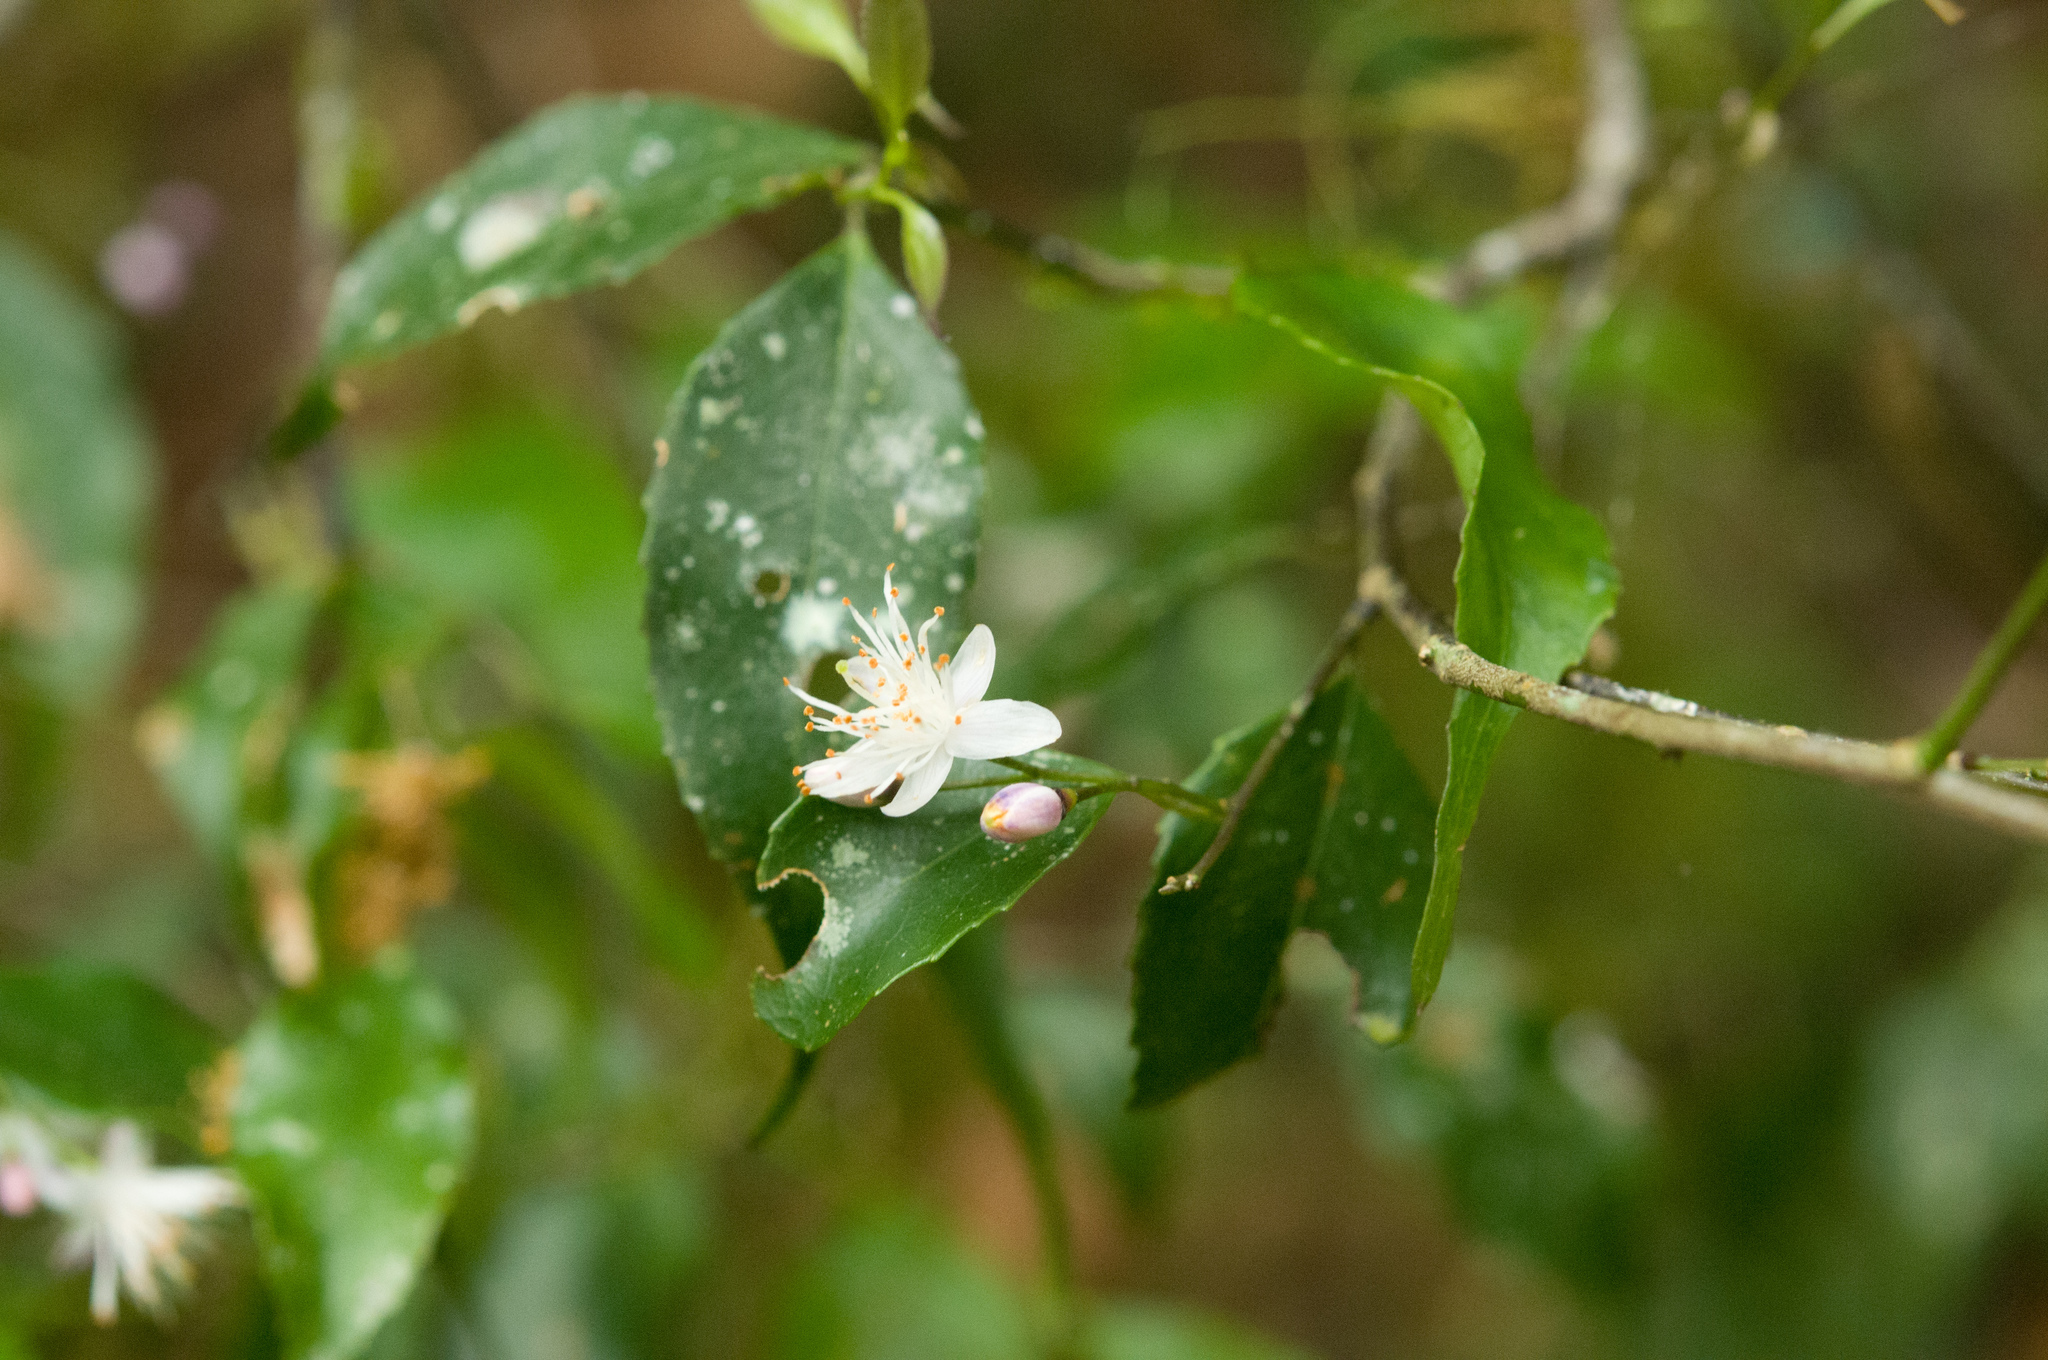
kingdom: Plantae
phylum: Tracheophyta
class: Magnoliopsida
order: Ericales
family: Symplocaceae
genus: Symplocos
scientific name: Symplocos sumuntia
